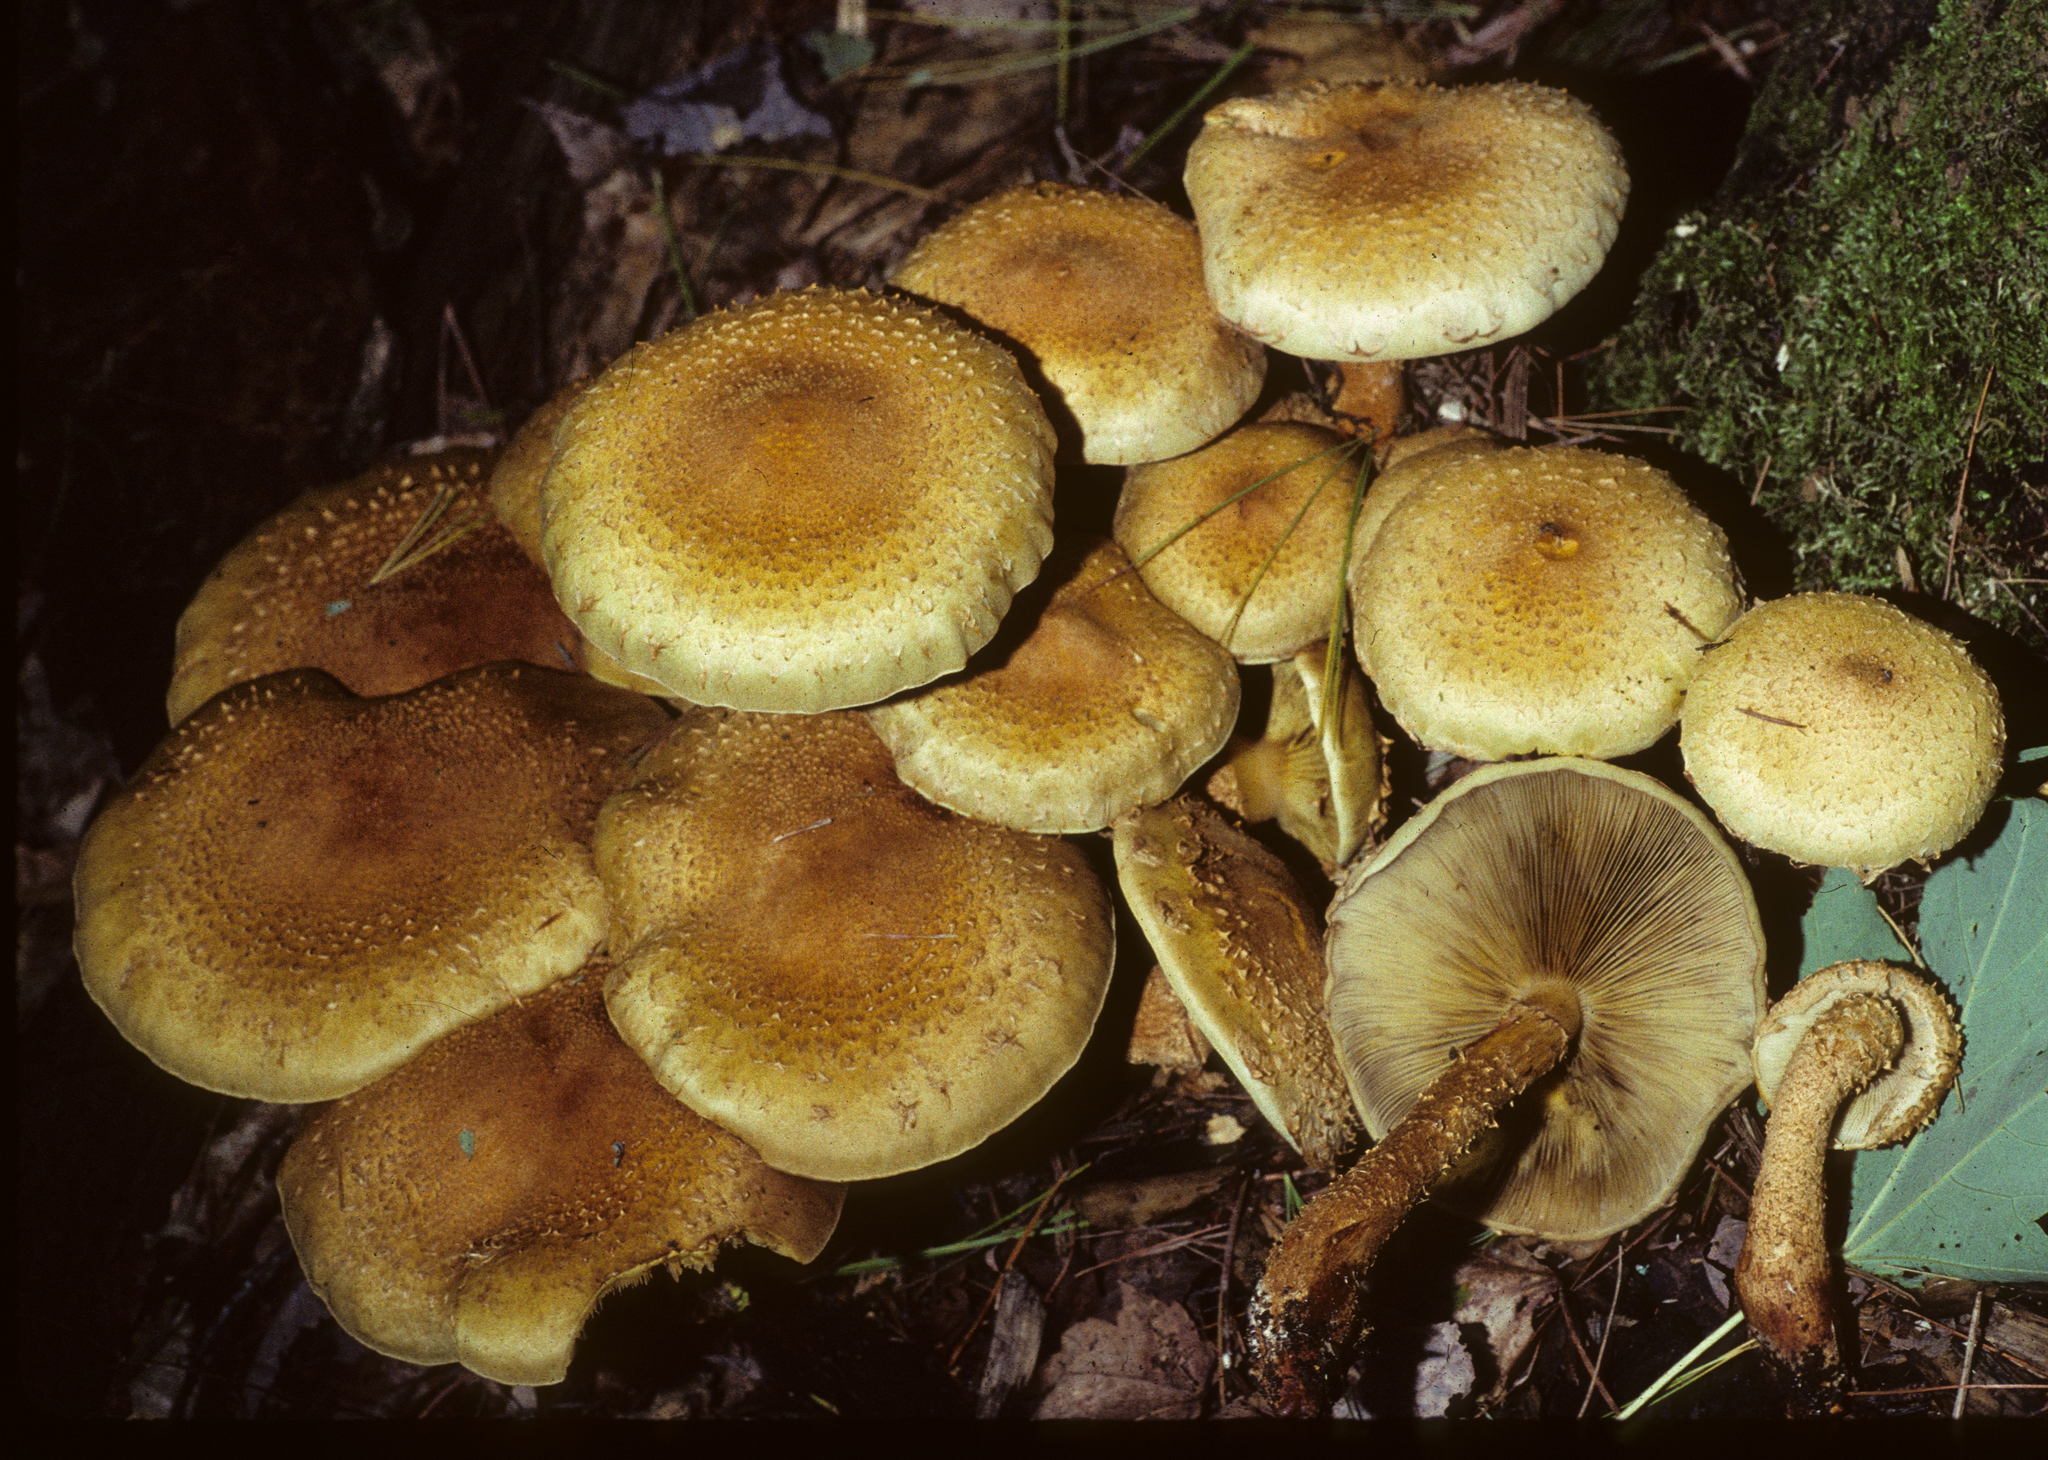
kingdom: Fungi
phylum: Basidiomycota
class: Agaricomycetes
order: Agaricales
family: Strophariaceae
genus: Pholiota
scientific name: Pholiota squarrosa
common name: Shaggy pholiota
